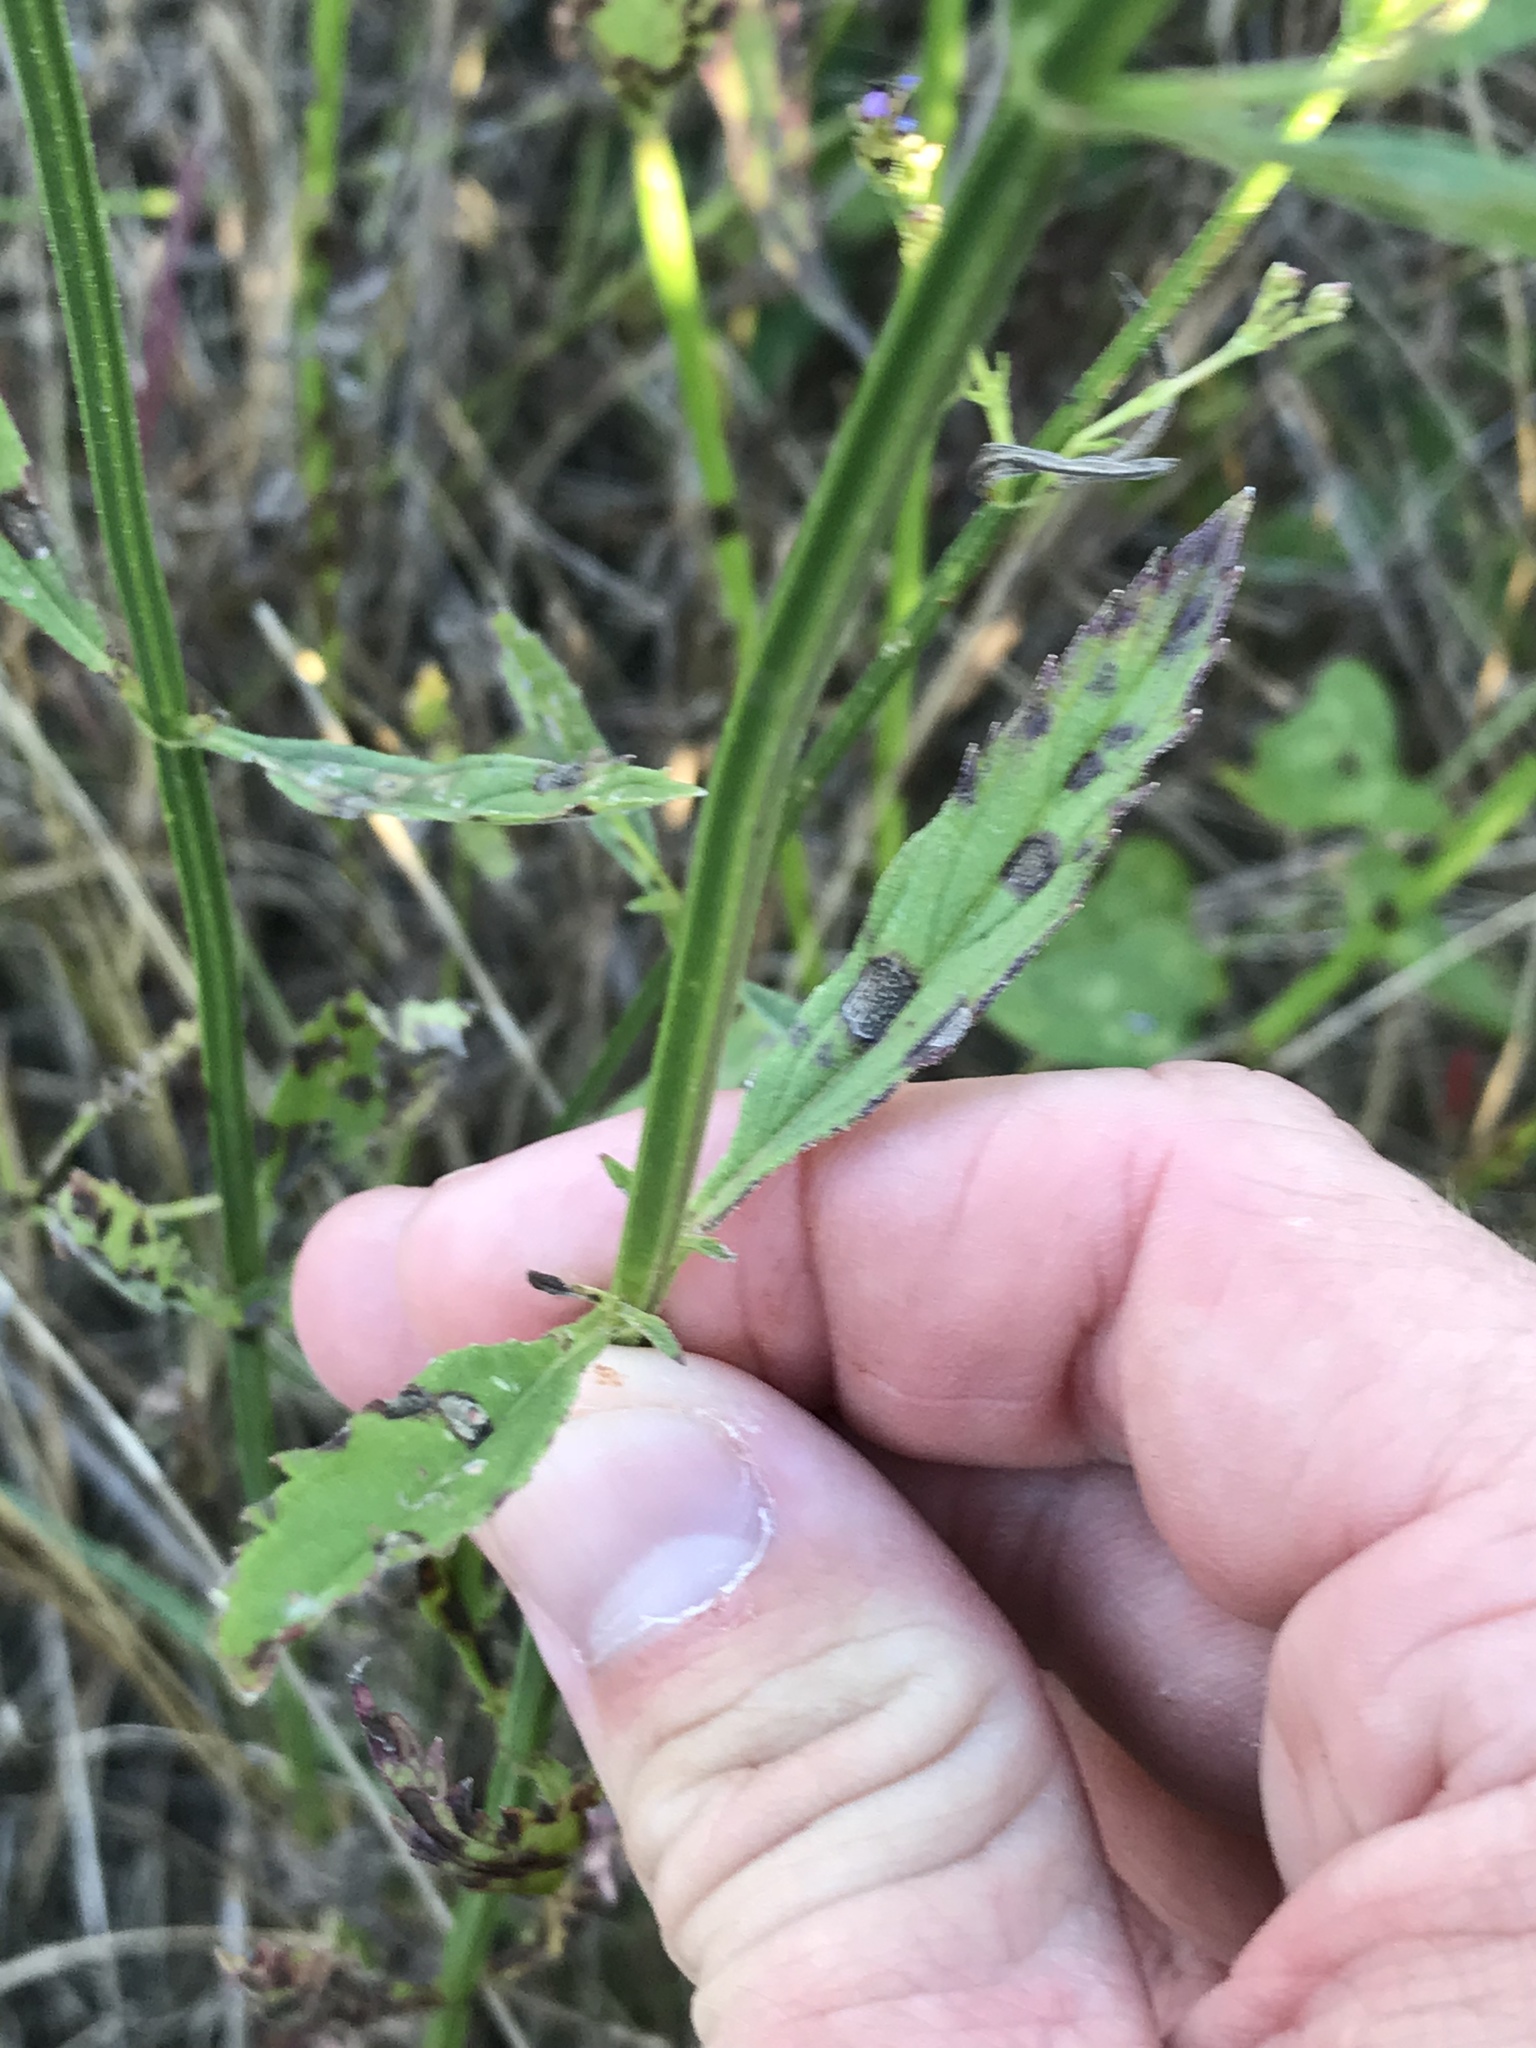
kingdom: Plantae
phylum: Tracheophyta
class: Magnoliopsida
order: Lamiales
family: Verbenaceae
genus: Verbena
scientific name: Verbena brasiliensis
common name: Brazilian vervain
